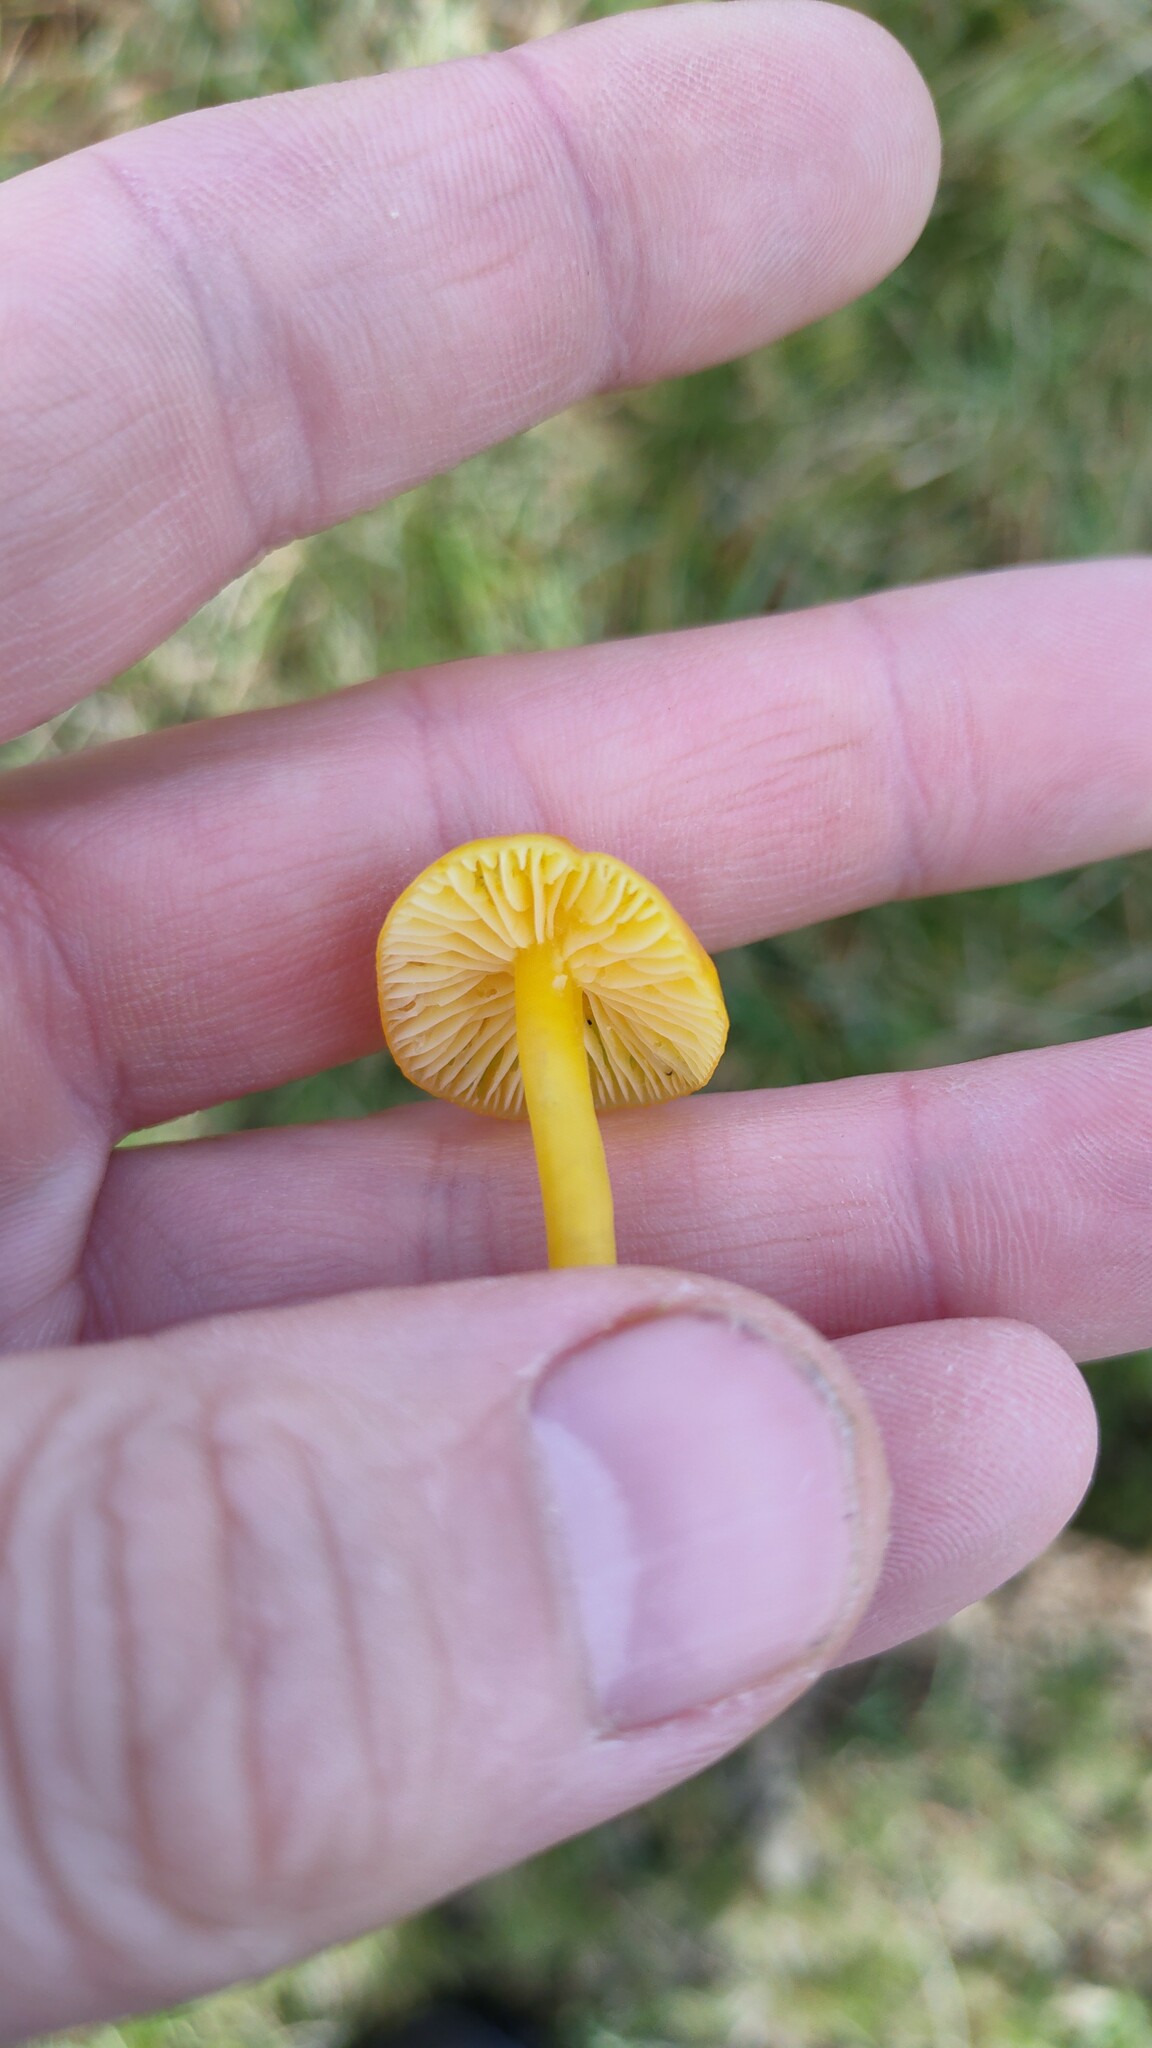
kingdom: Fungi
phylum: Basidiomycota
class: Agaricomycetes
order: Agaricales
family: Hygrophoraceae
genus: Hygrocybe
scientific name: Hygrocybe ceracea
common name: Butter waxcap
